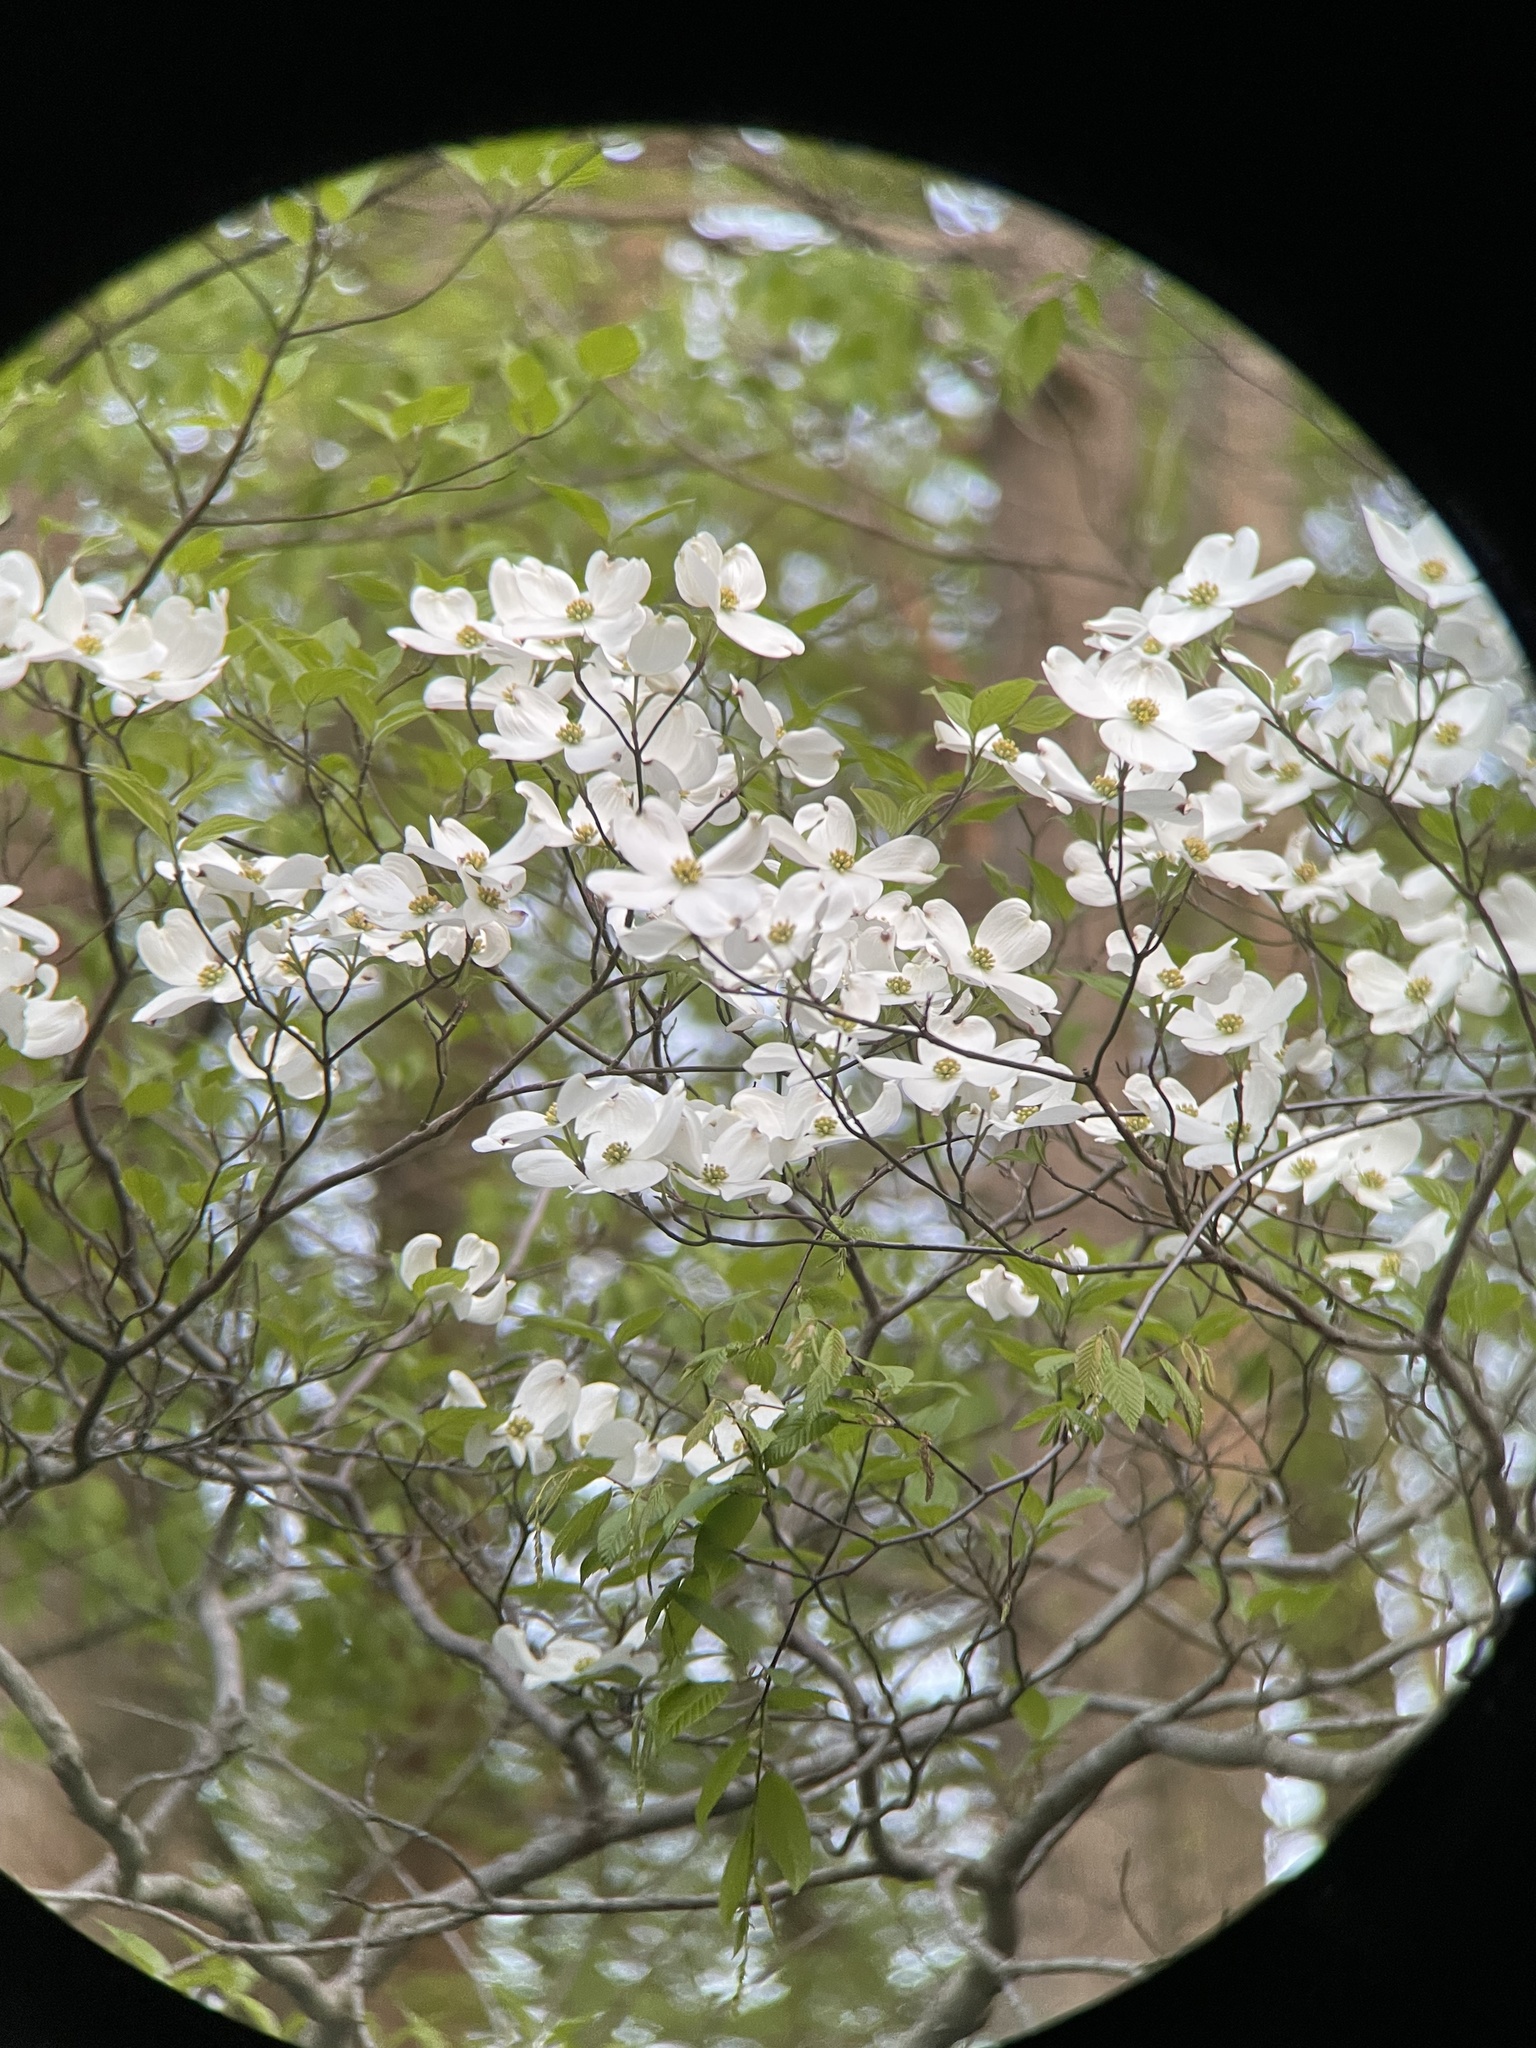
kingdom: Plantae
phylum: Tracheophyta
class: Magnoliopsida
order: Cornales
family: Cornaceae
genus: Cornus
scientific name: Cornus florida
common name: Flowering dogwood
